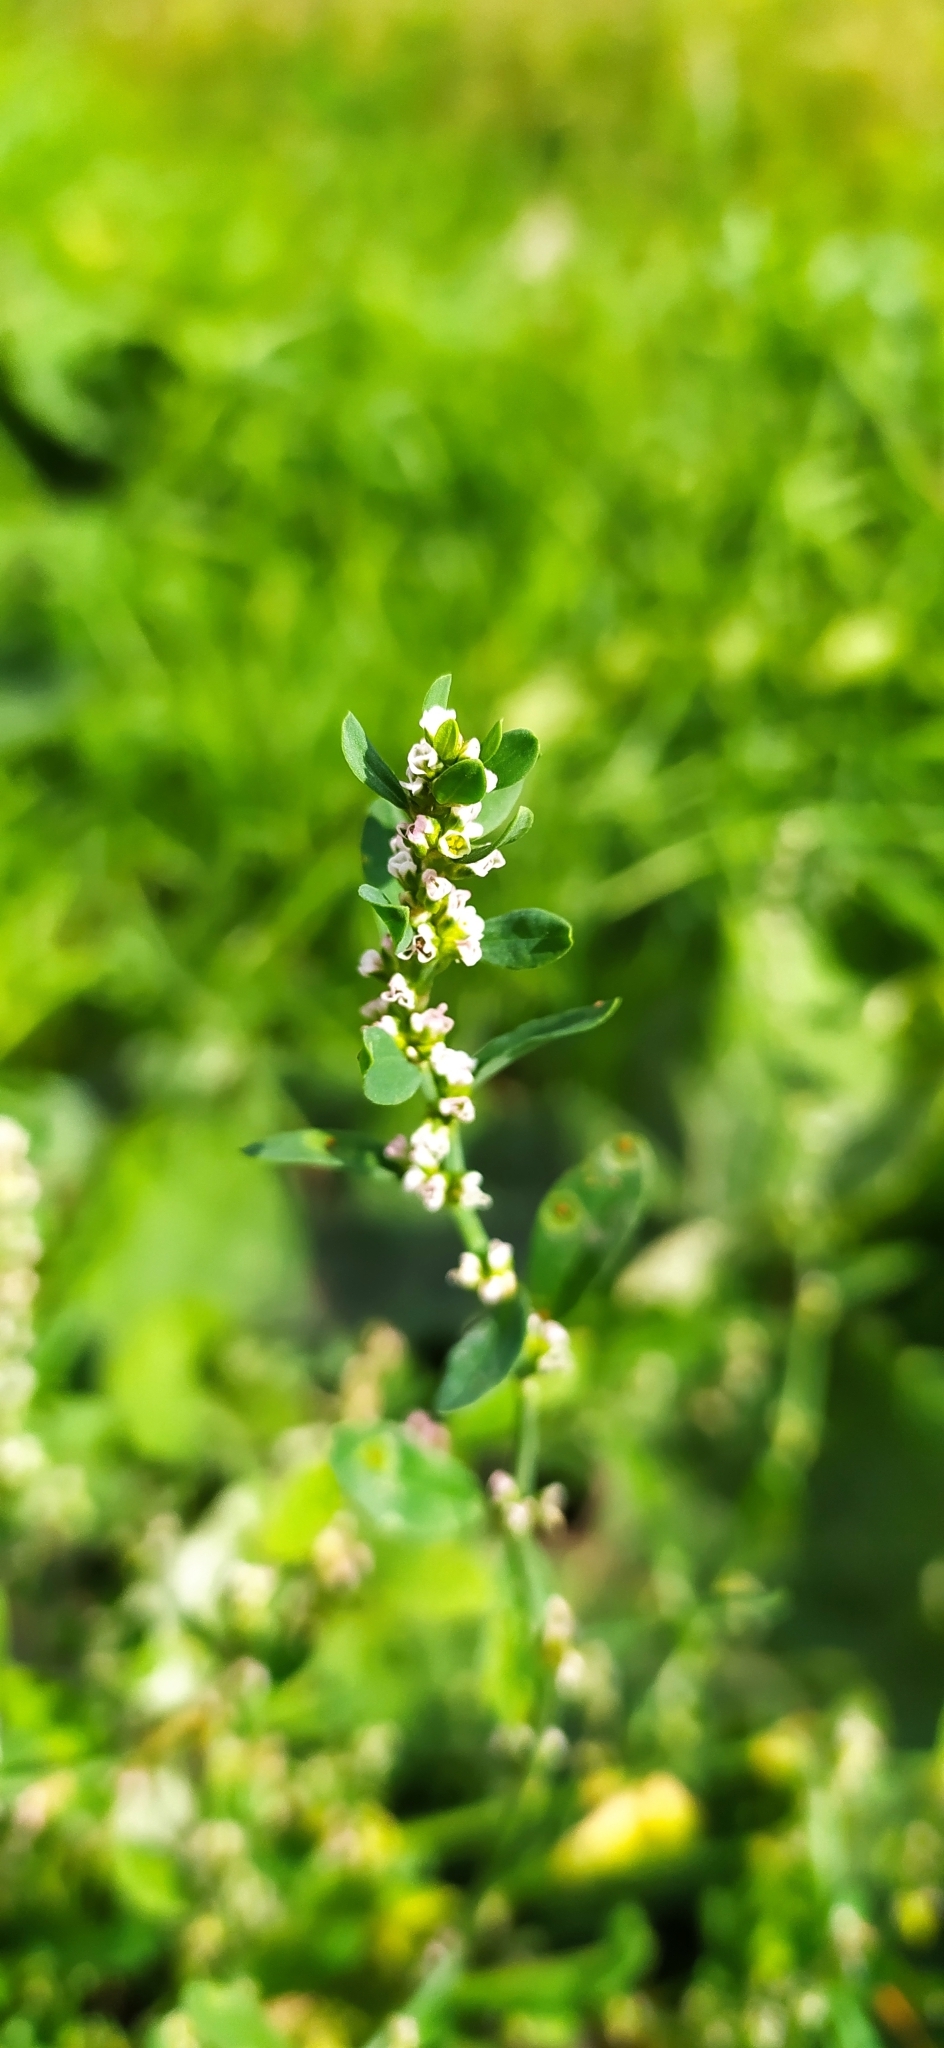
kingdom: Plantae
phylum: Tracheophyta
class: Magnoliopsida
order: Caryophyllales
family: Polygonaceae
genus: Polygonum
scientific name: Polygonum arenastrum
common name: Equal-leaved knotgrass
